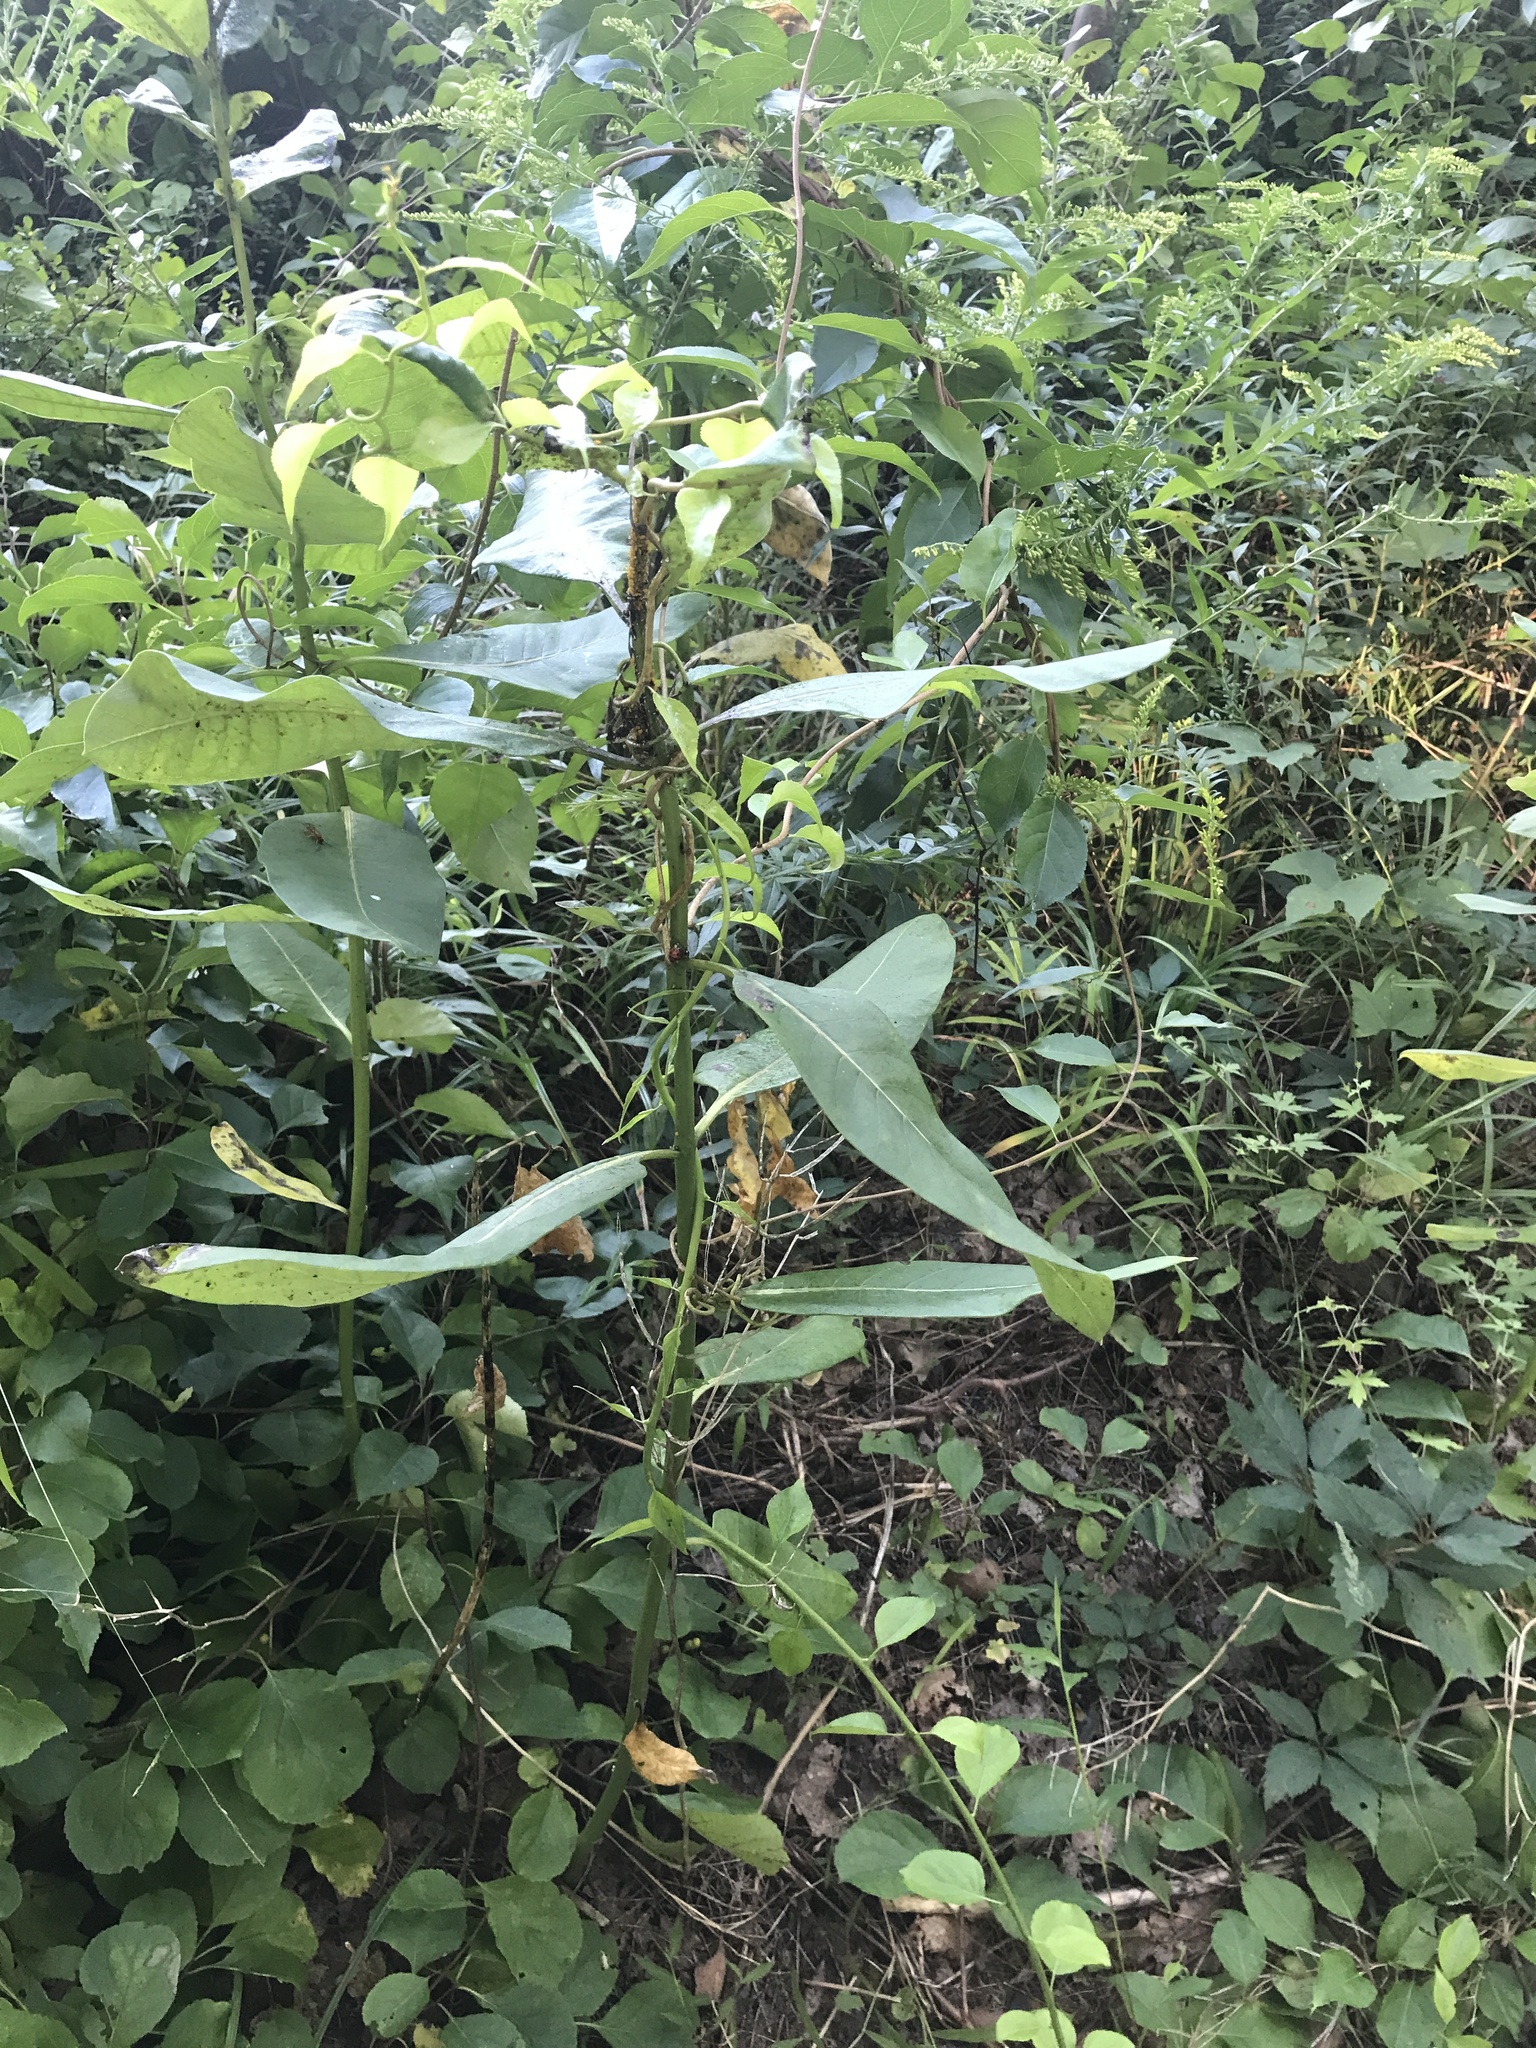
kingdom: Animalia
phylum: Arthropoda
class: Insecta
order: Hemiptera
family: Aphididae
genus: Aphis
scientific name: Aphis nerii
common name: Oleander aphid
